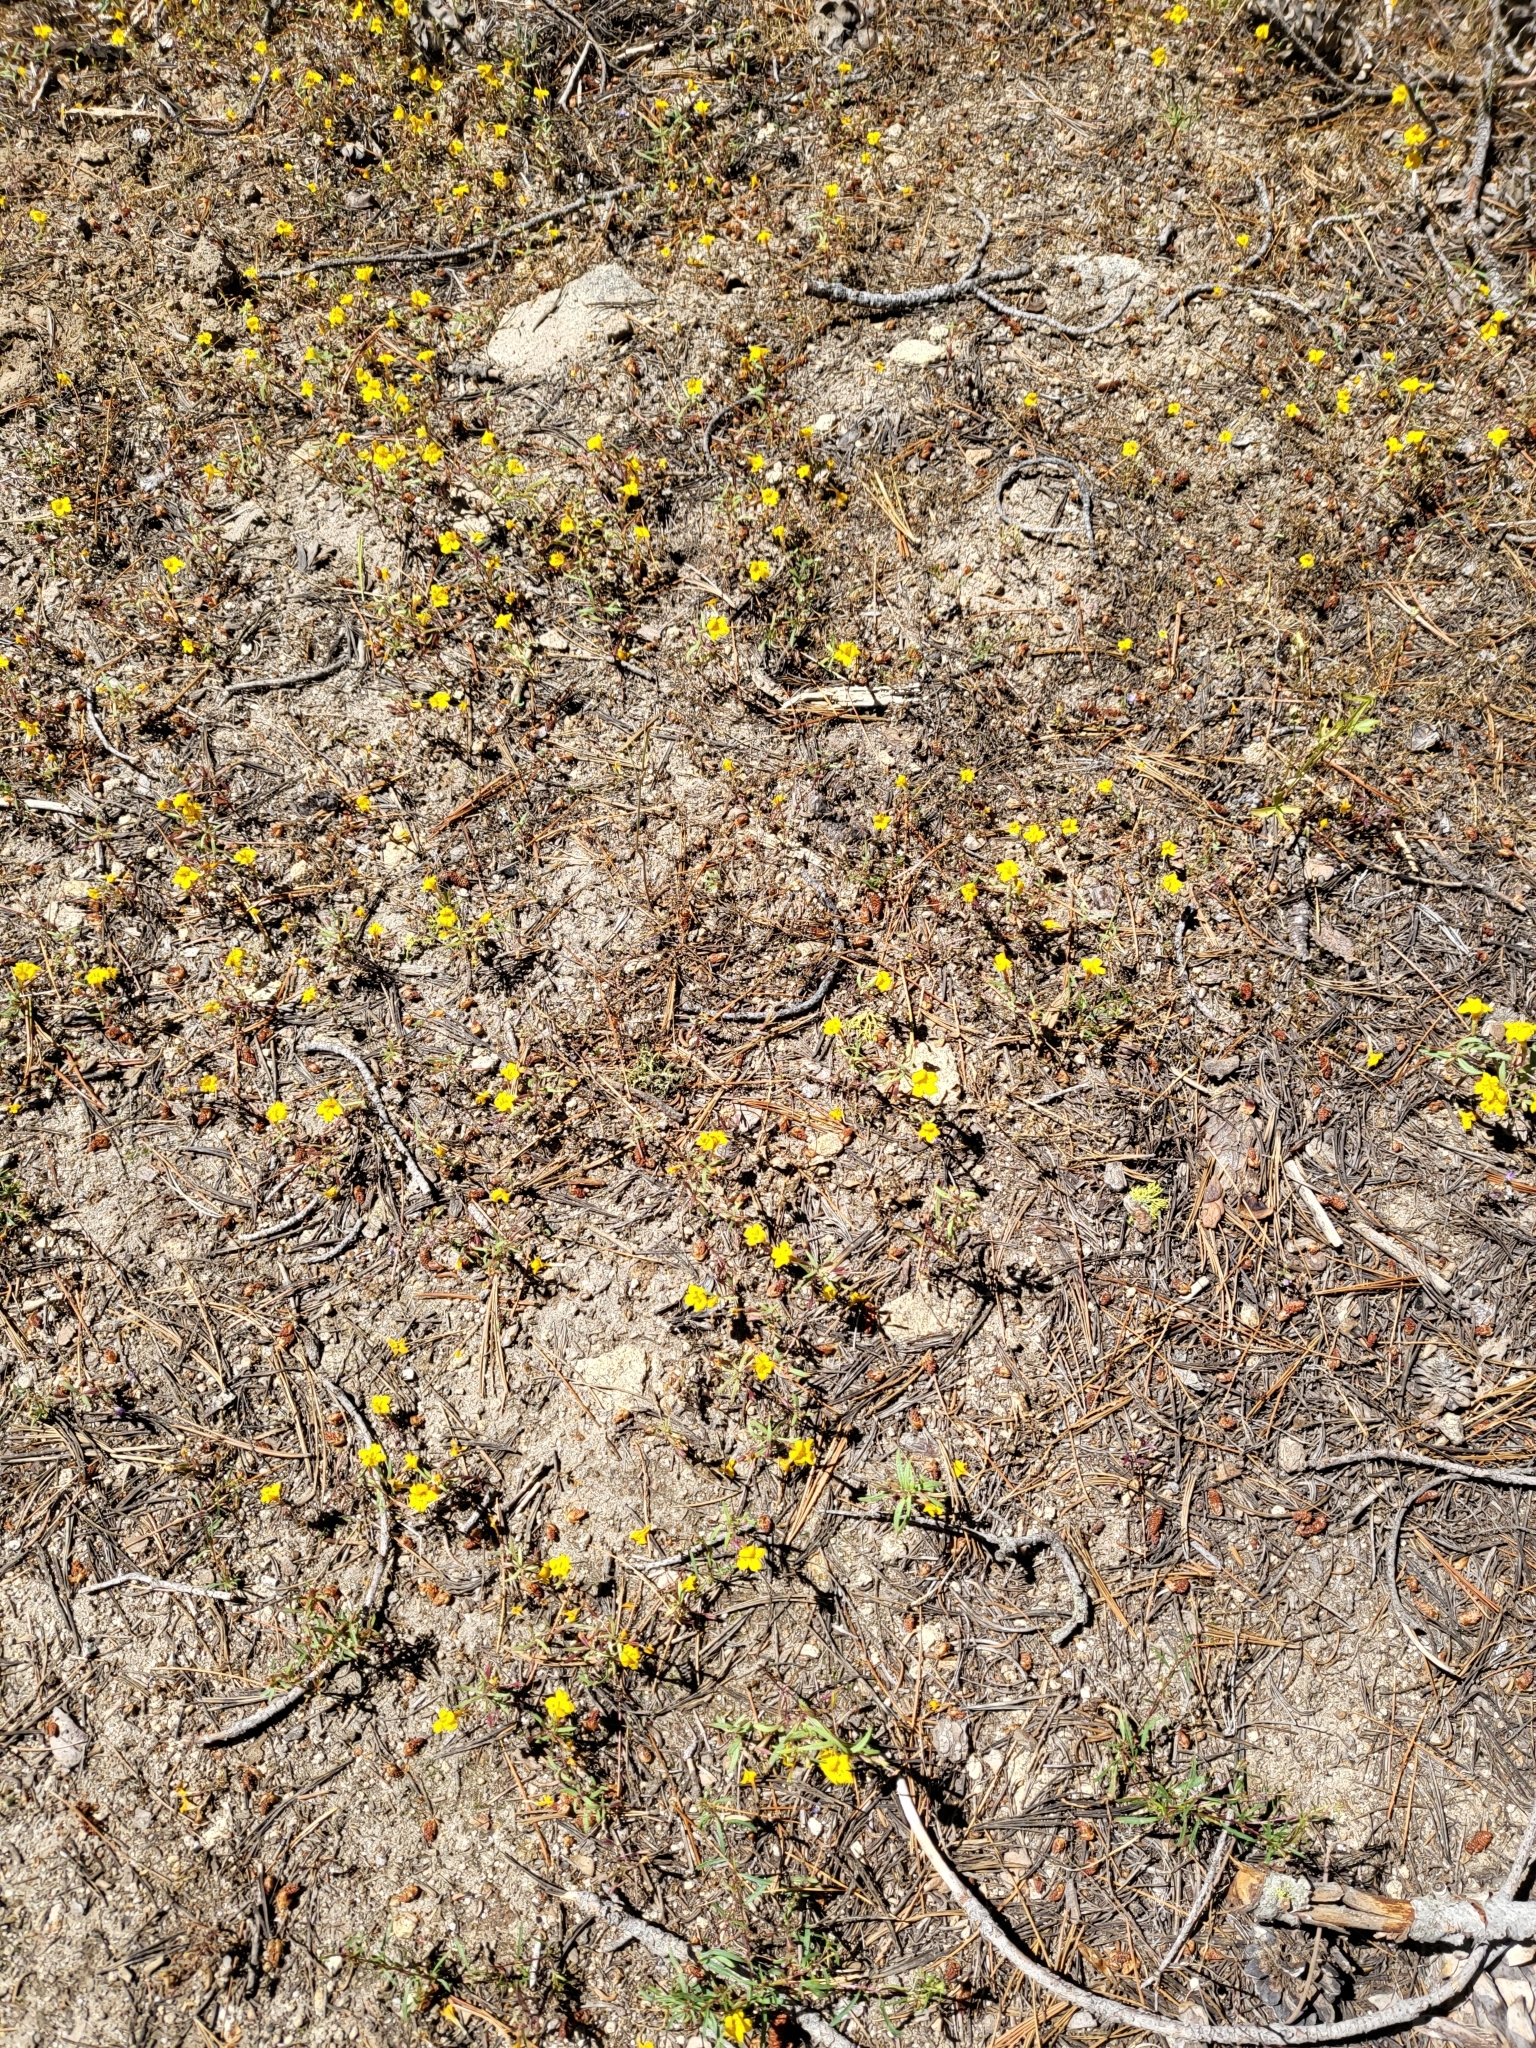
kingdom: Plantae
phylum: Tracheophyta
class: Magnoliopsida
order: Lamiales
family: Phrymaceae
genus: Erythranthe
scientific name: Erythranthe montioides
